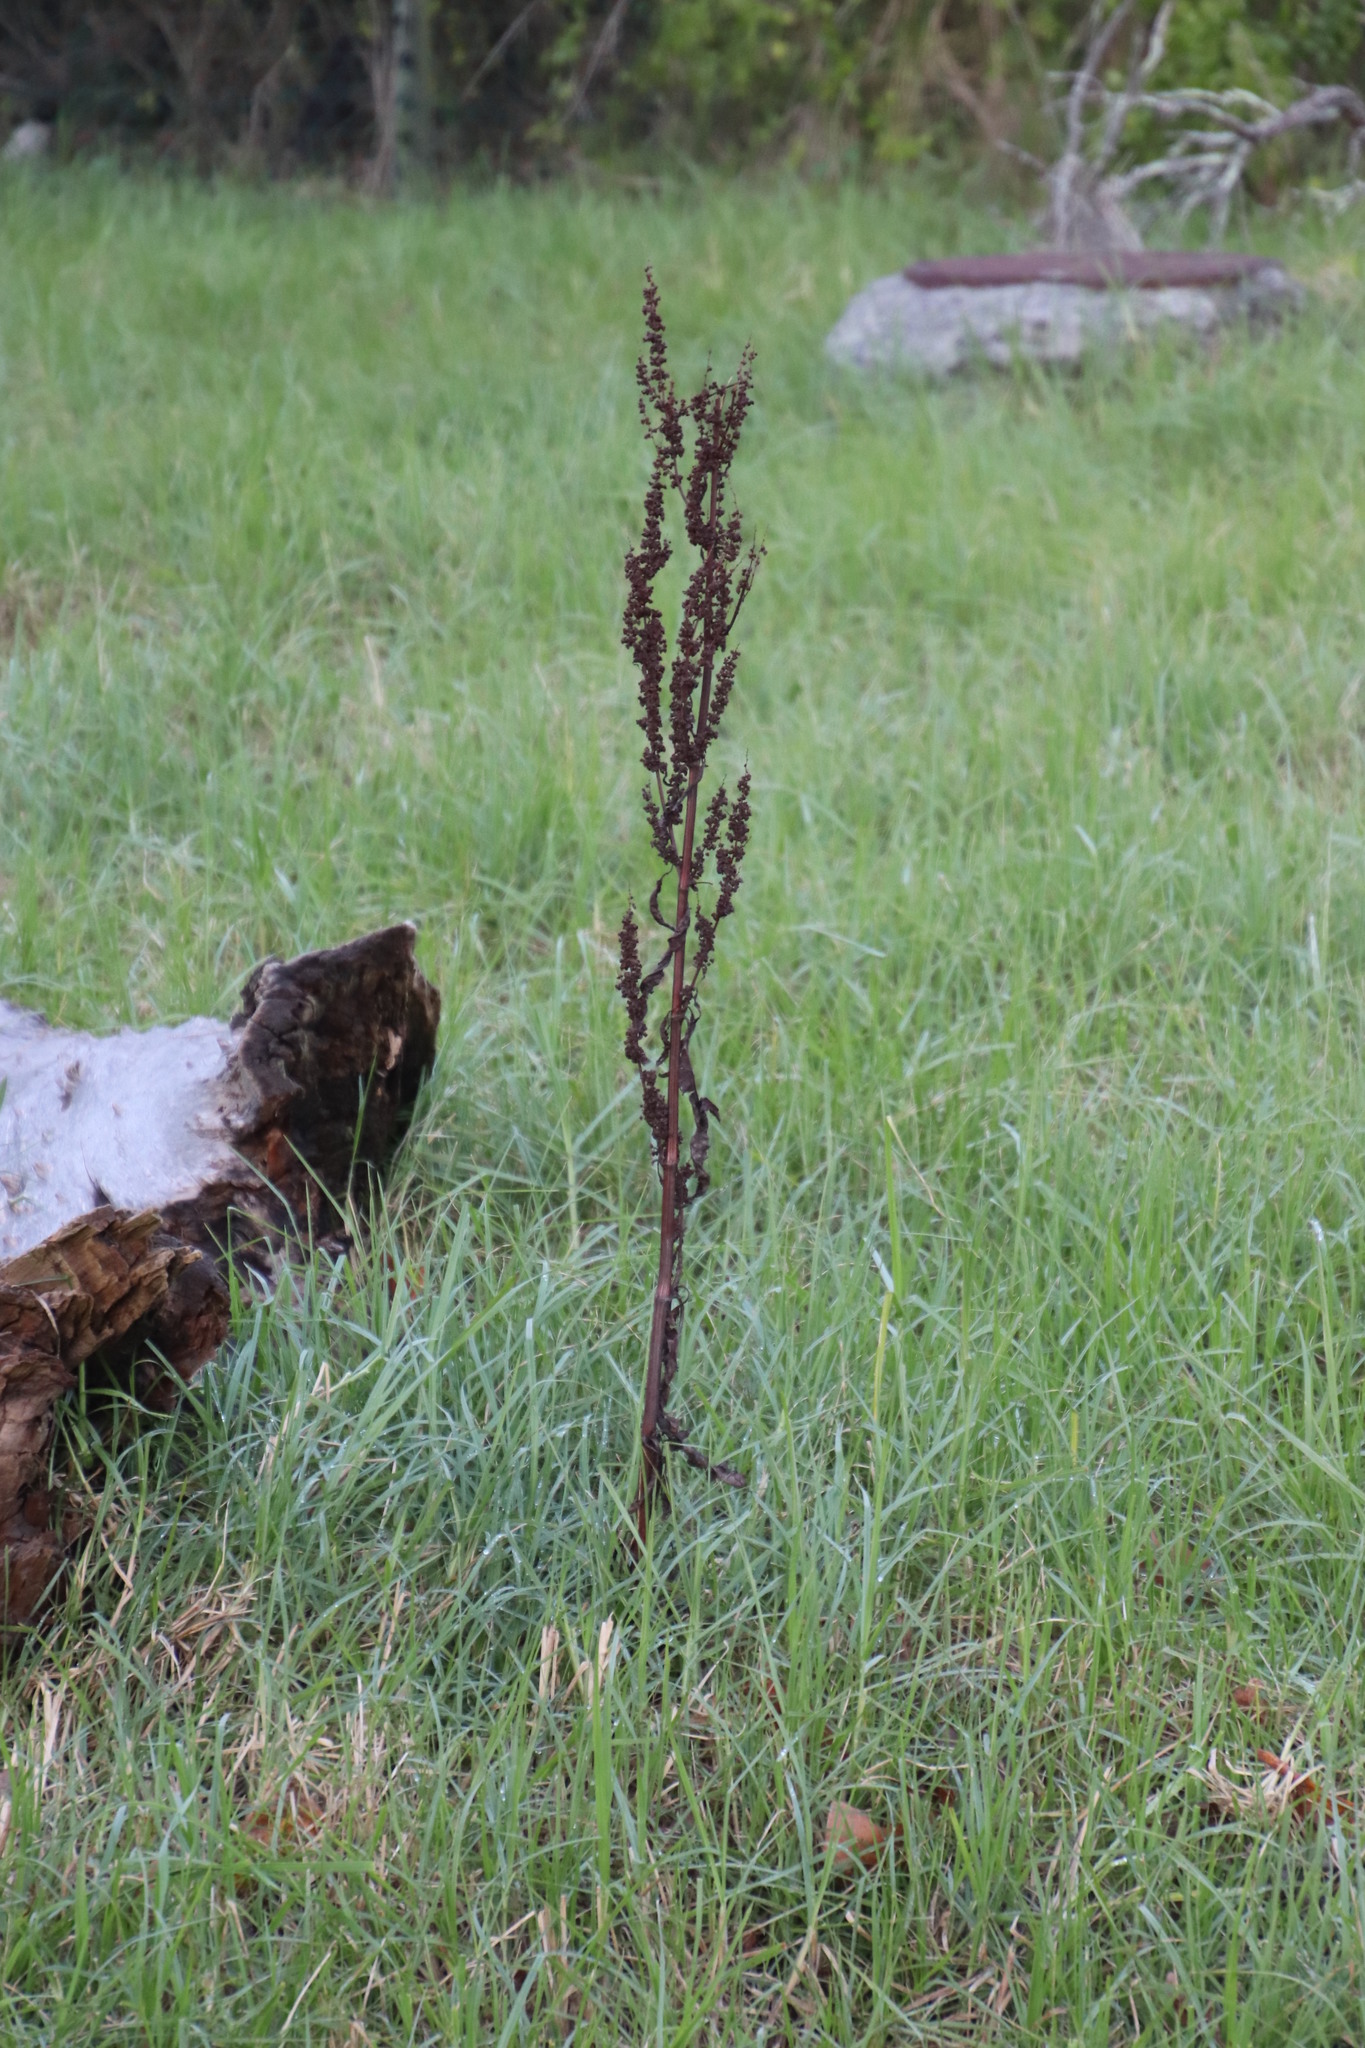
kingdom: Plantae
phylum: Tracheophyta
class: Magnoliopsida
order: Caryophyllales
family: Polygonaceae
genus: Rumex
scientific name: Rumex crispus
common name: Curled dock
